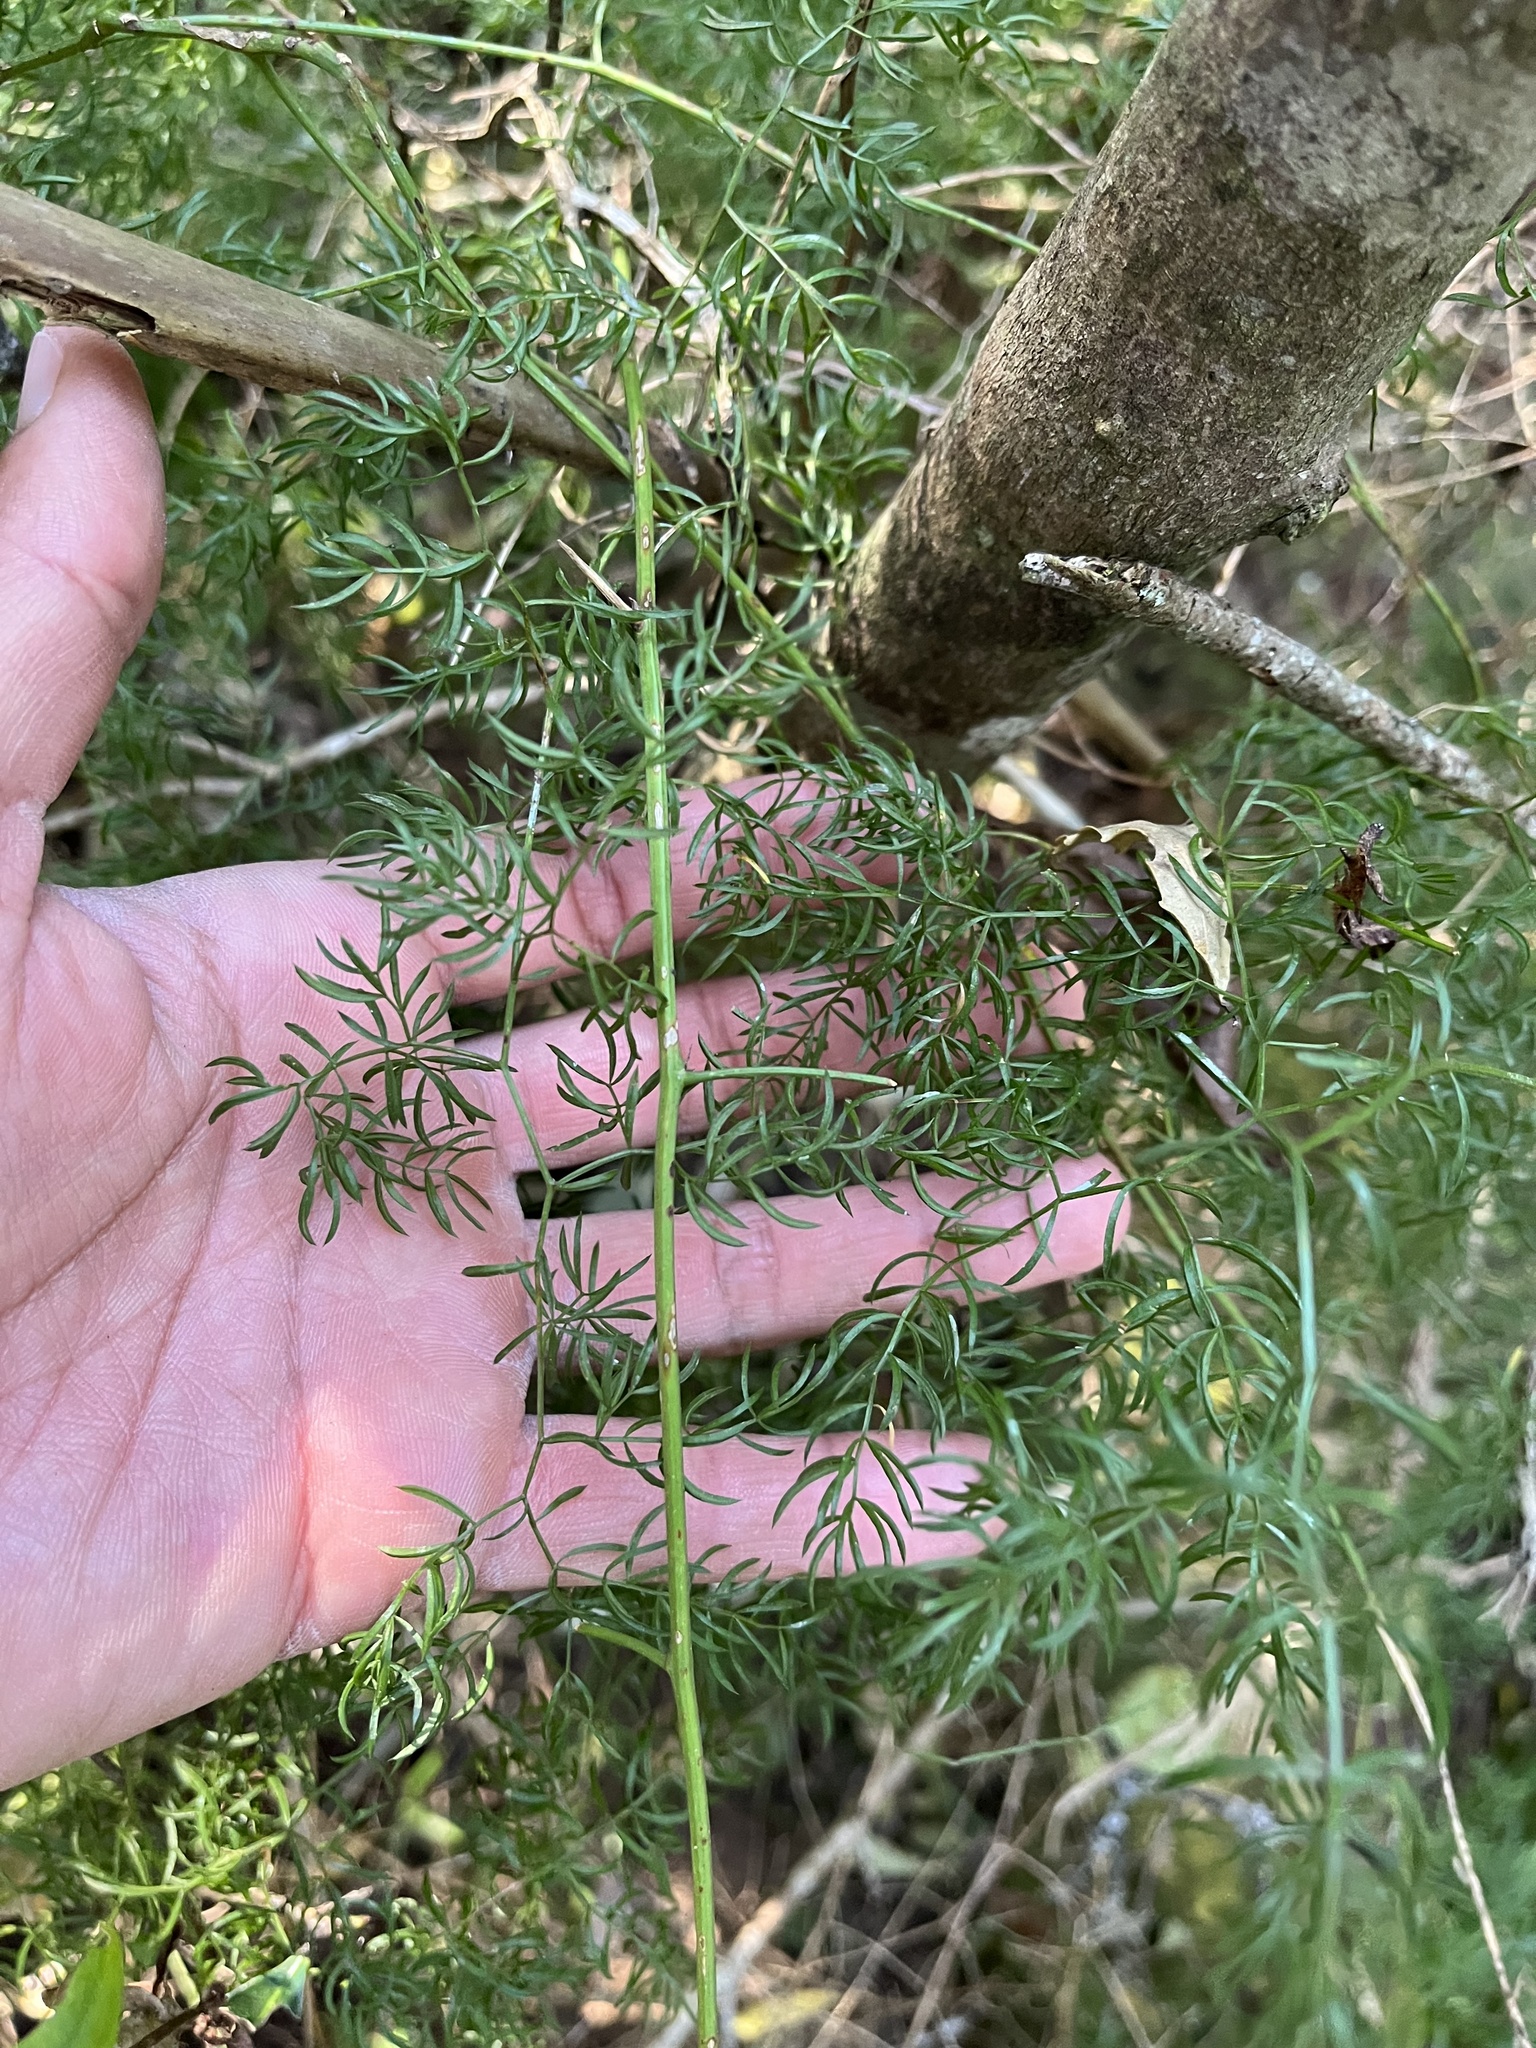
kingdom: Plantae
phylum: Tracheophyta
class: Liliopsida
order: Asparagales
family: Asparagaceae
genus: Asparagus
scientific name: Asparagus ramosissimus
